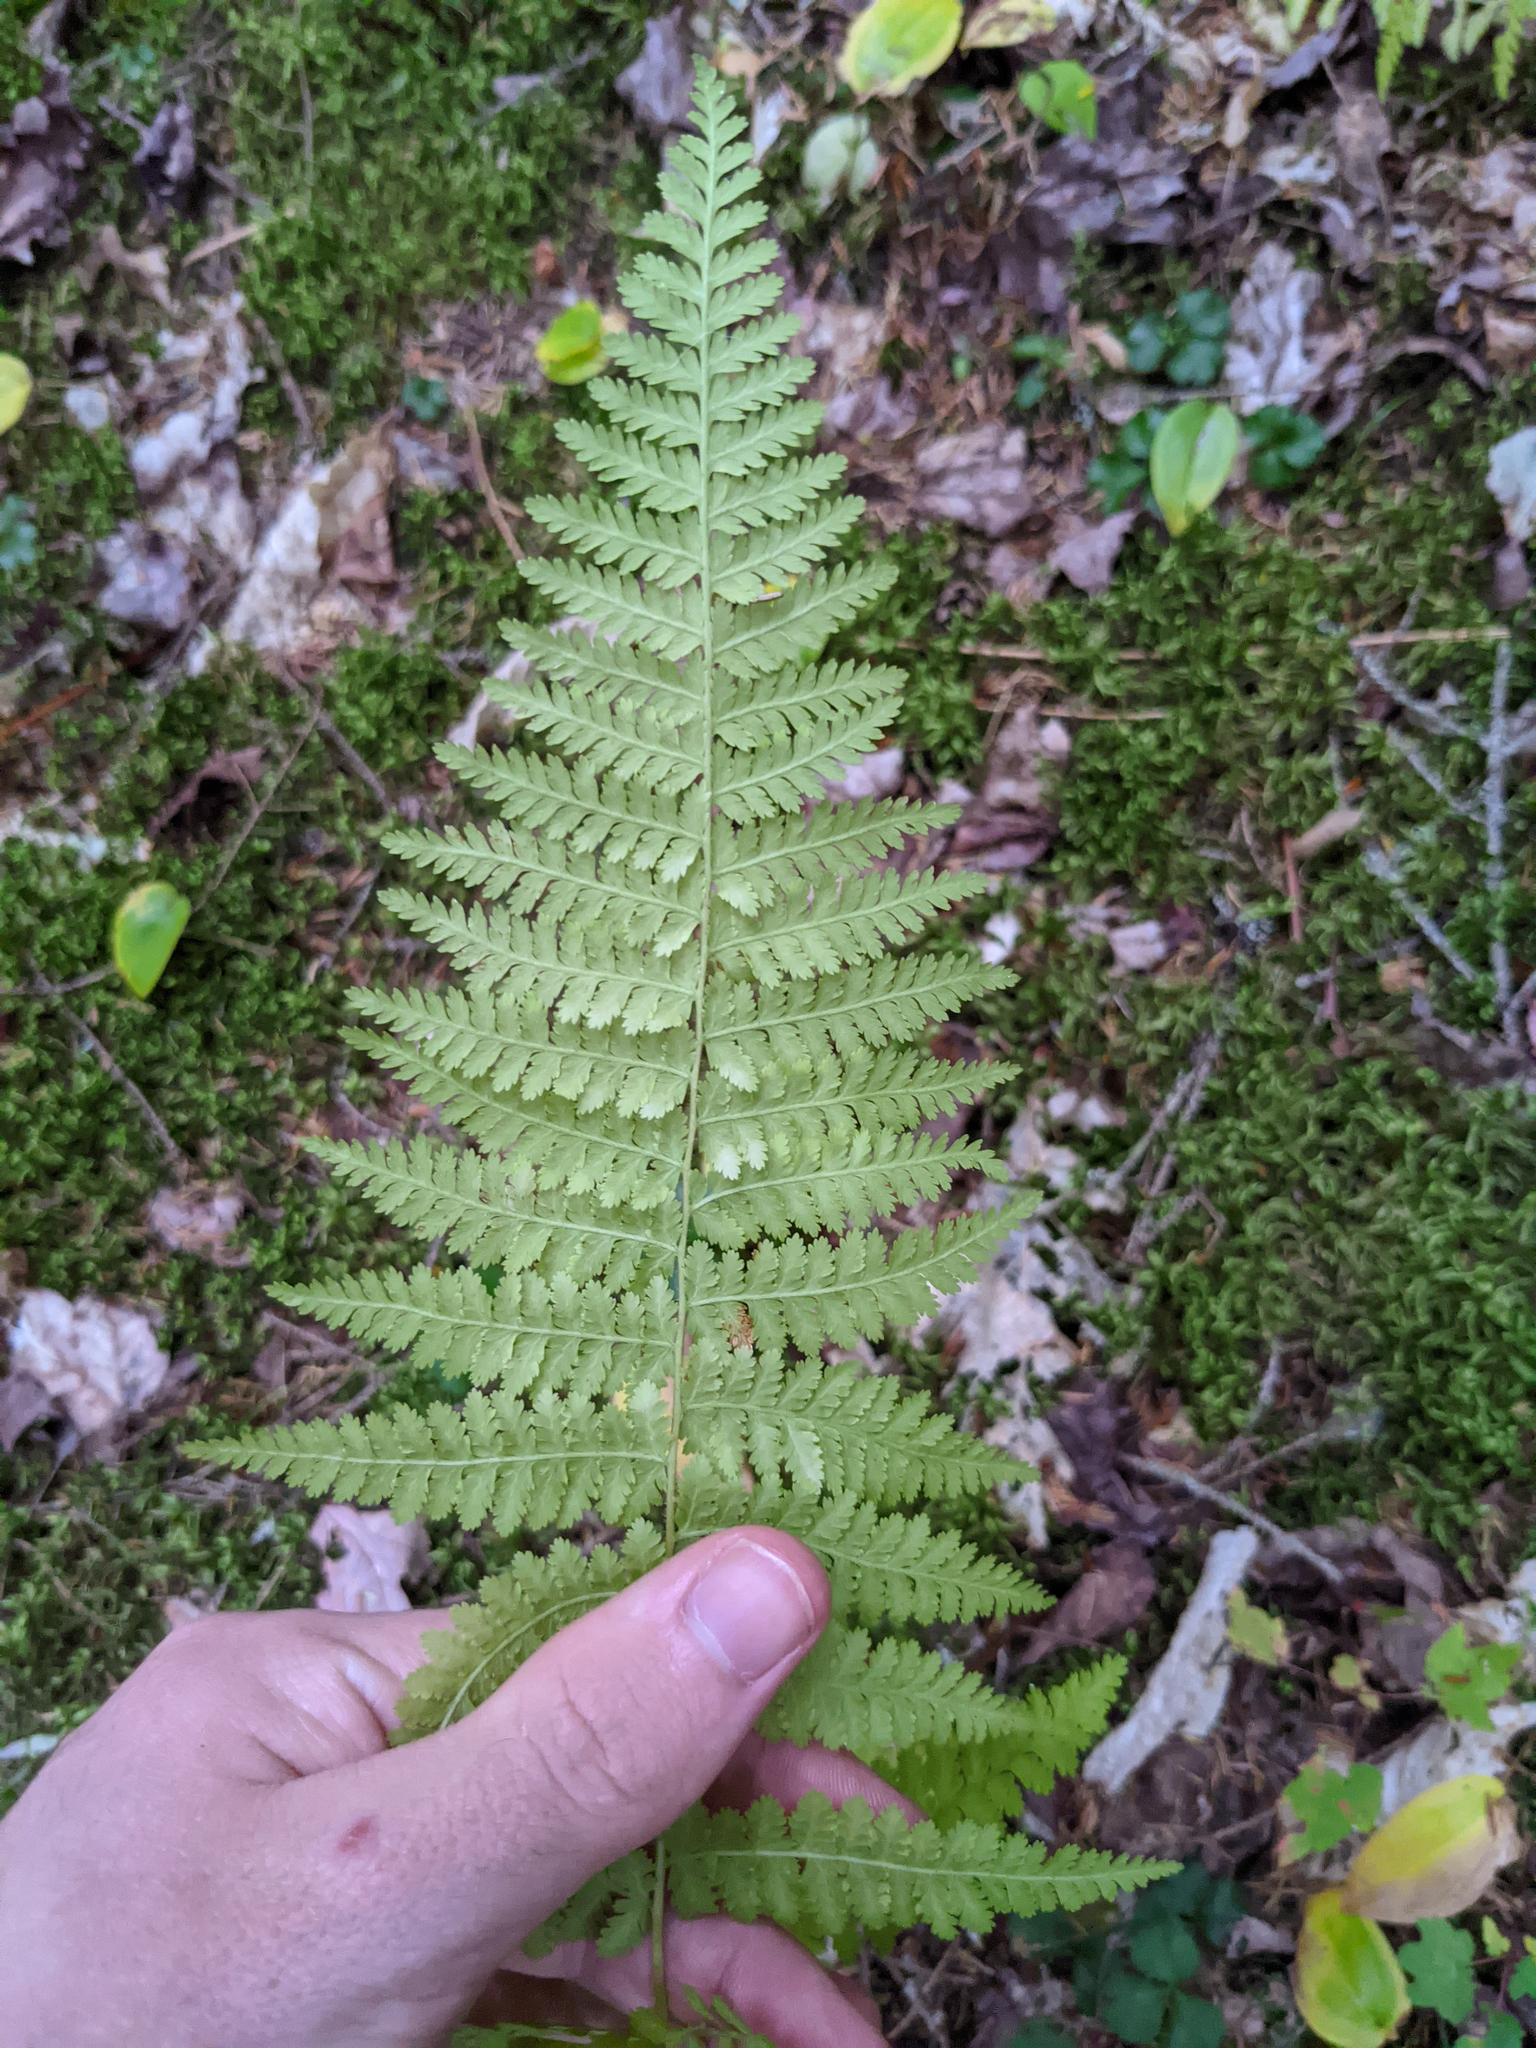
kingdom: Plantae
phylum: Tracheophyta
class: Polypodiopsida
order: Polypodiales
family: Dennstaedtiaceae
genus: Sitobolium
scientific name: Sitobolium punctilobum
